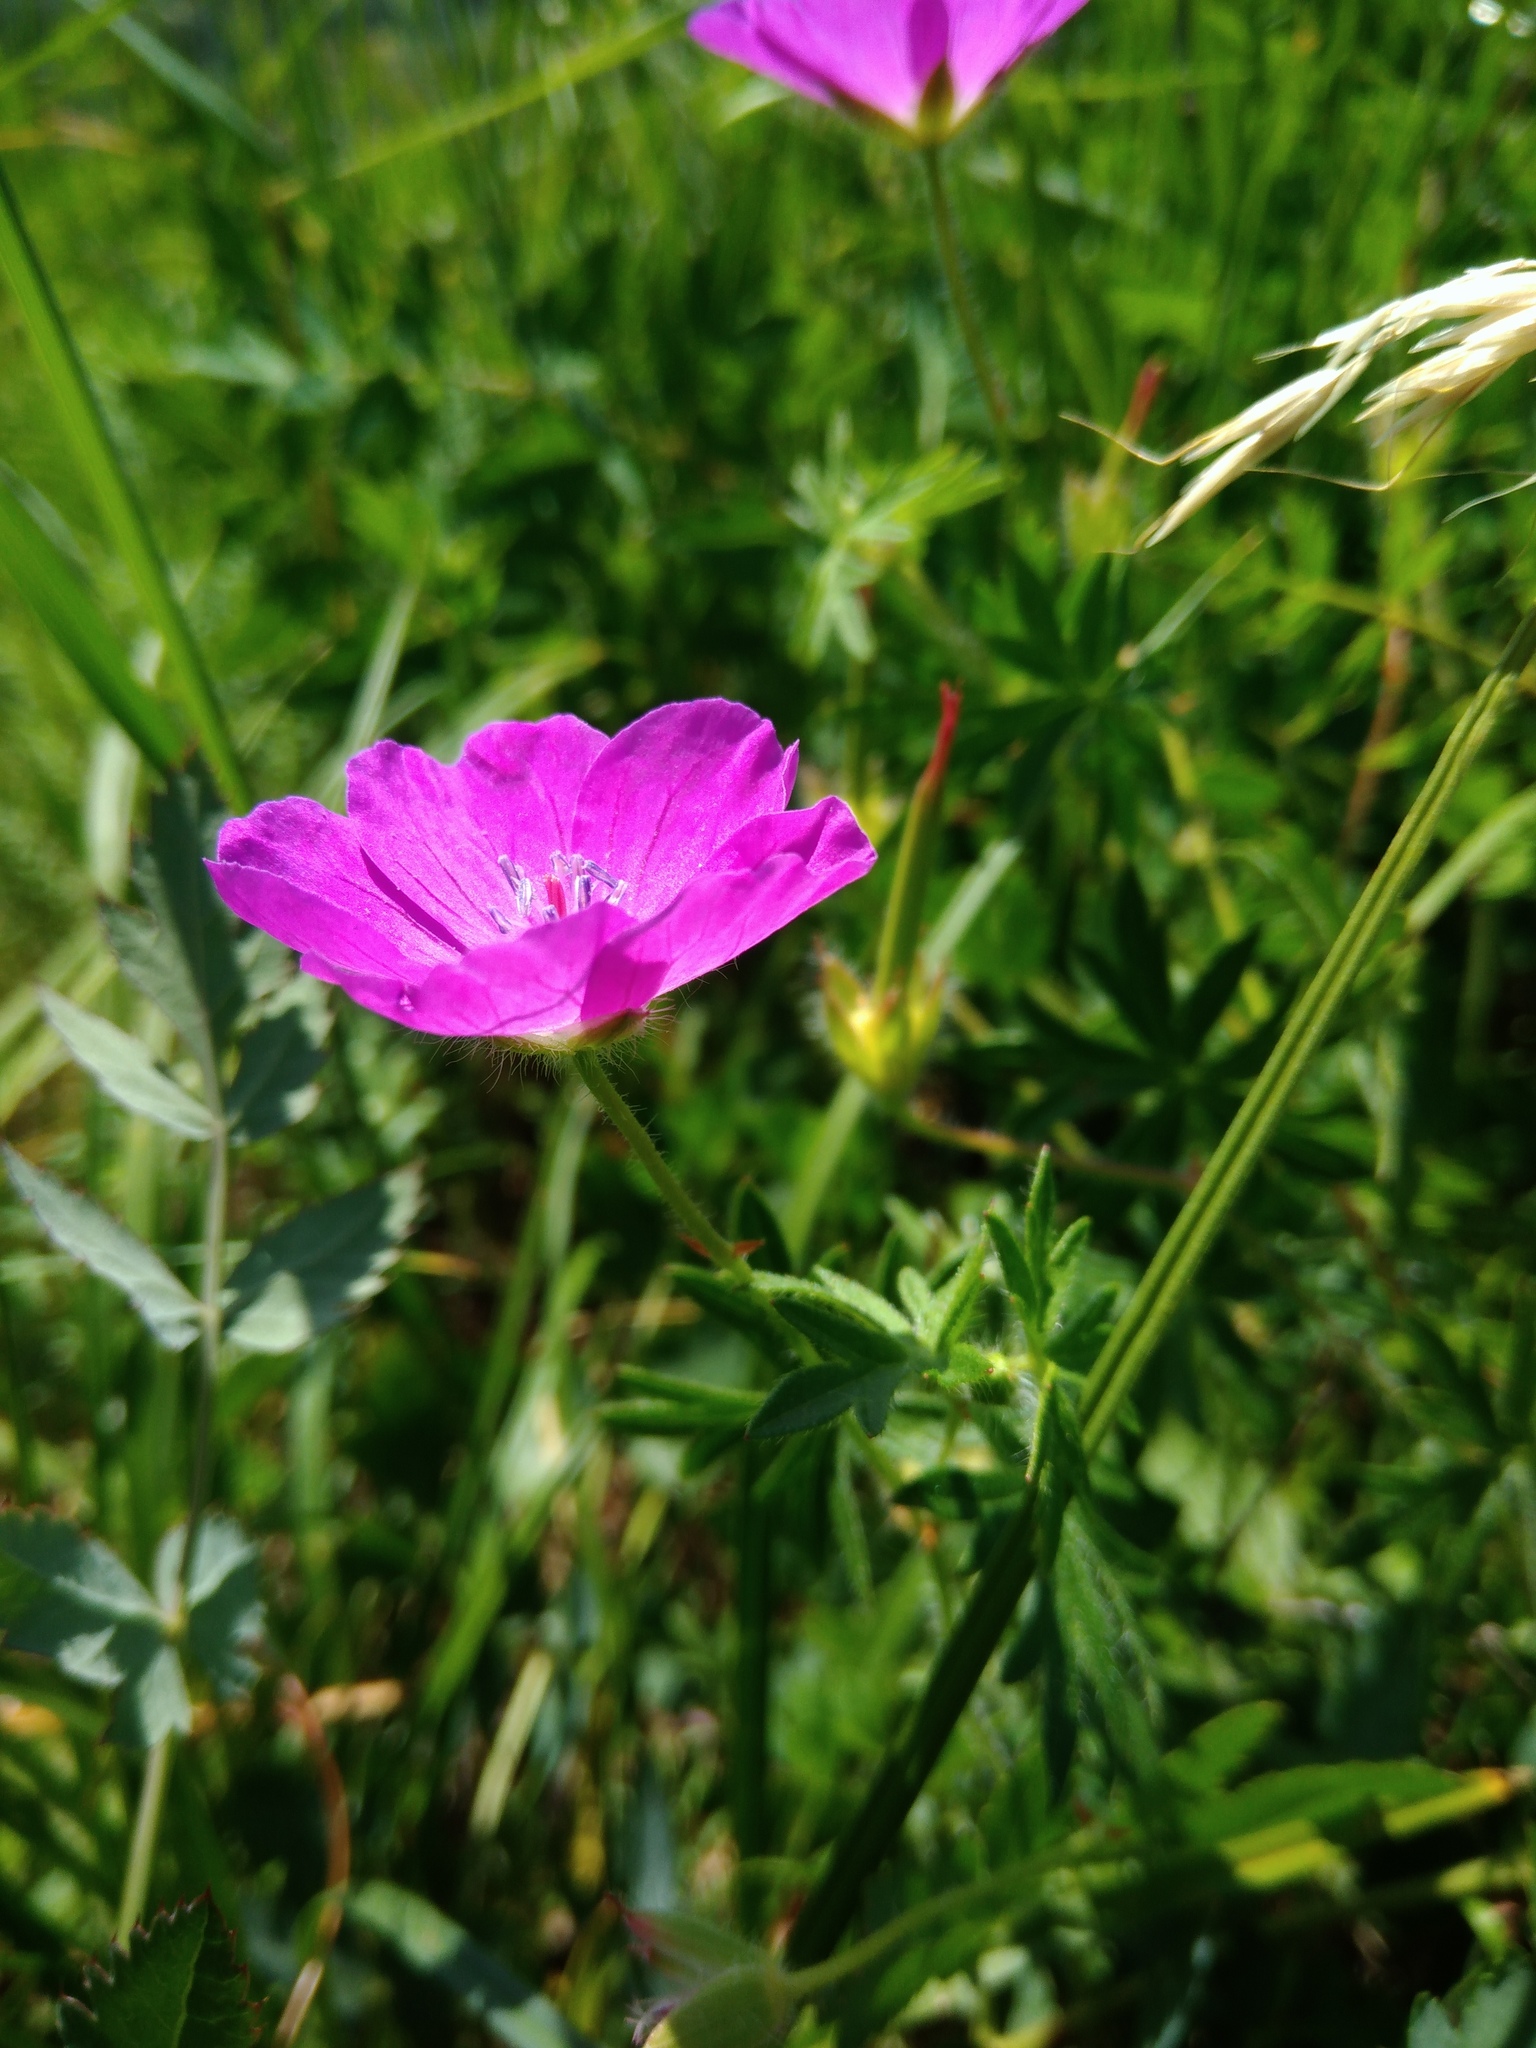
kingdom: Plantae
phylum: Tracheophyta
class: Magnoliopsida
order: Geraniales
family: Geraniaceae
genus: Geranium
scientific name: Geranium sanguineum
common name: Bloody crane's-bill
